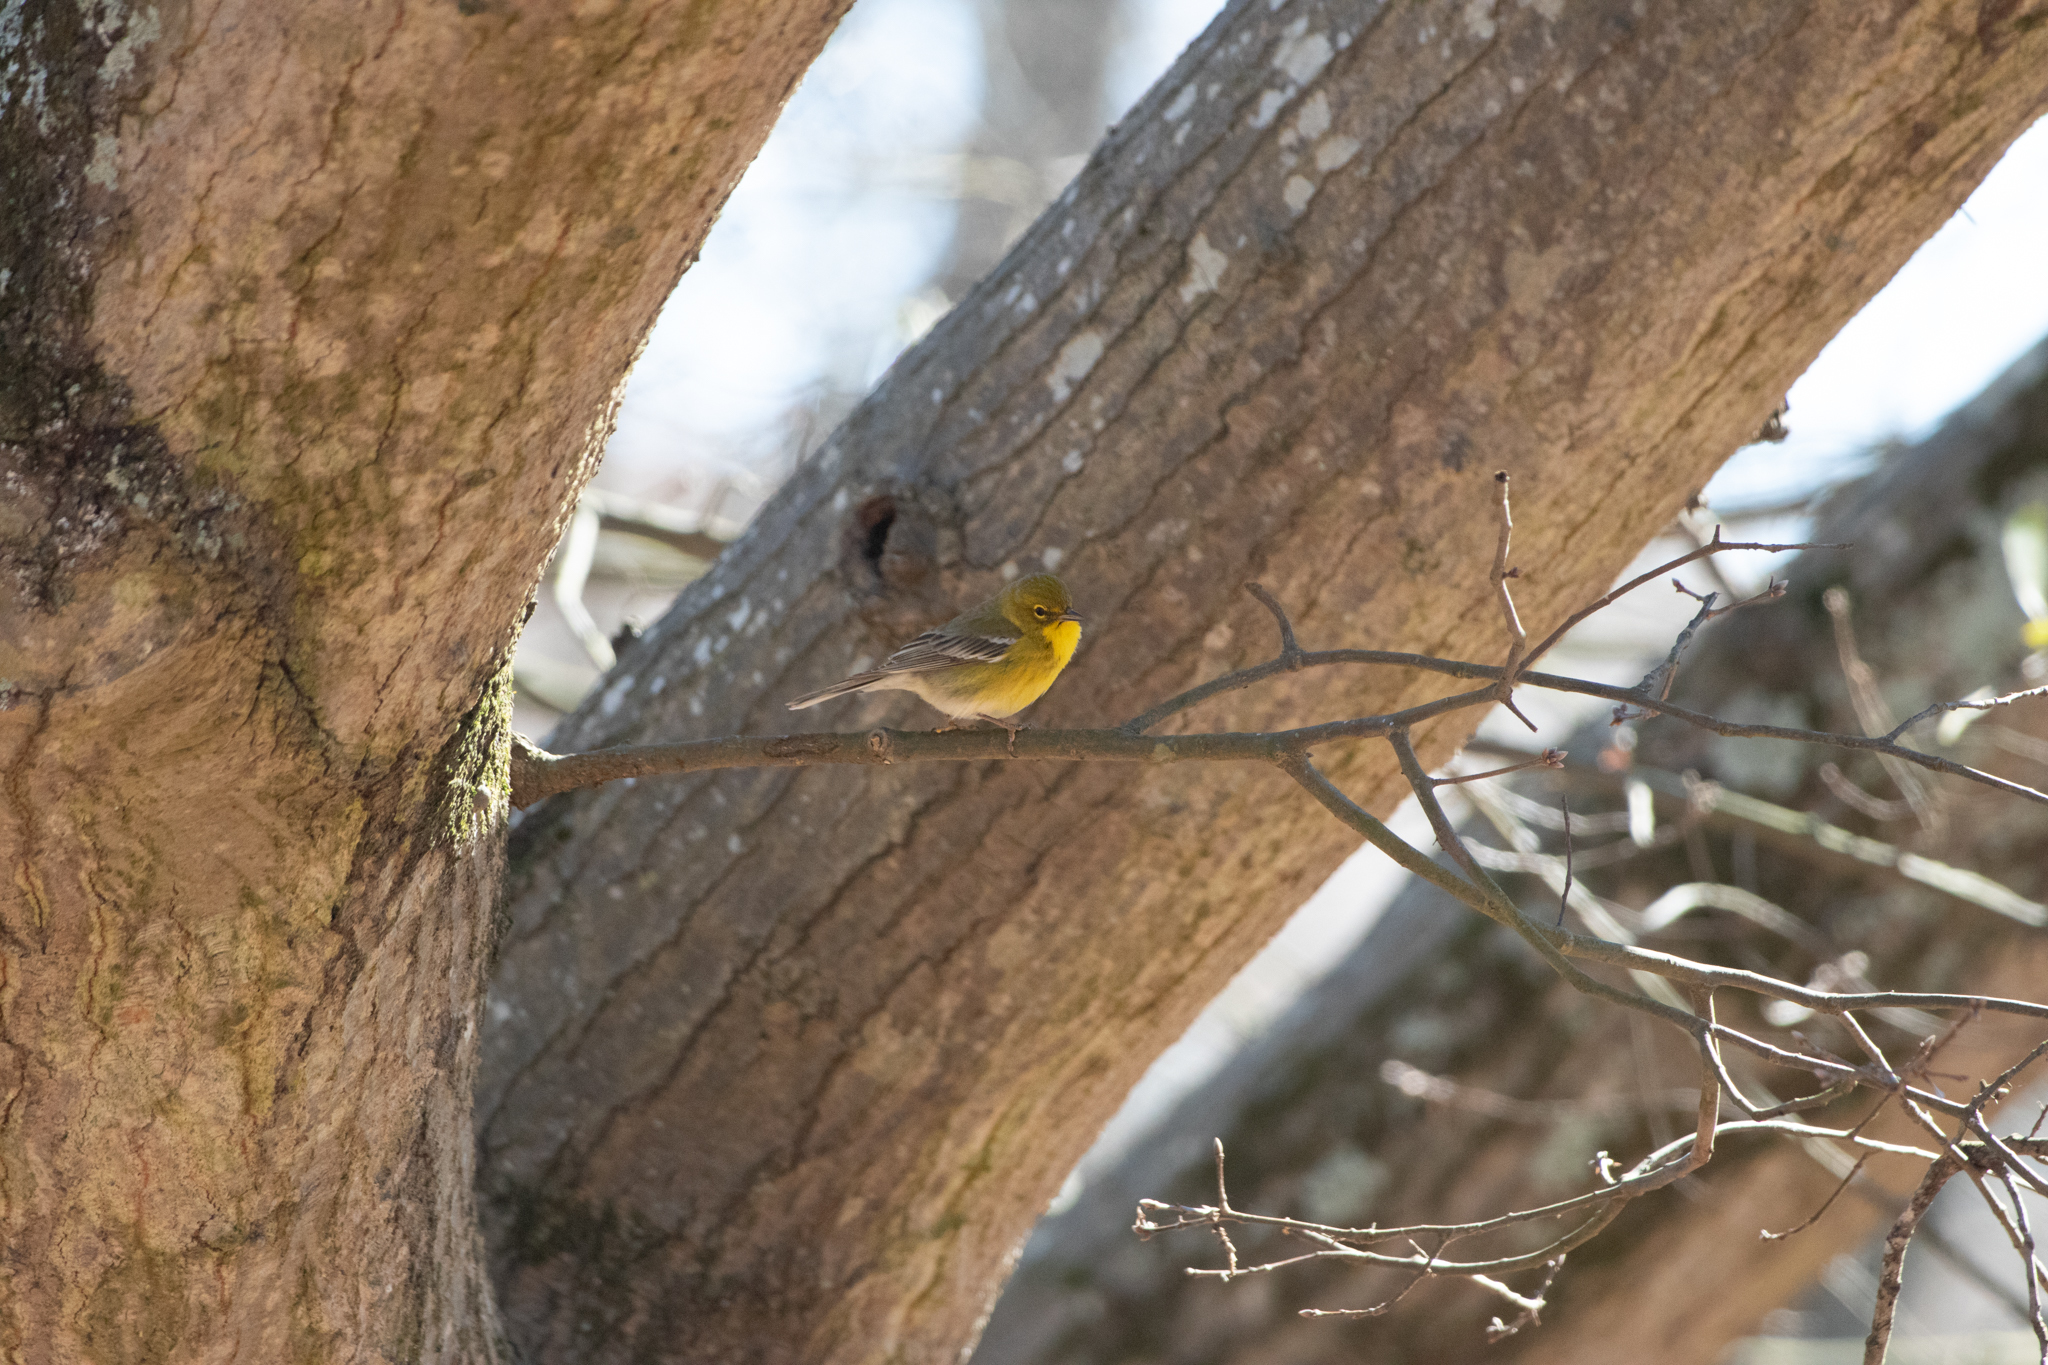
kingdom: Animalia
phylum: Chordata
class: Aves
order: Passeriformes
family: Parulidae
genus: Setophaga
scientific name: Setophaga pinus
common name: Pine warbler
